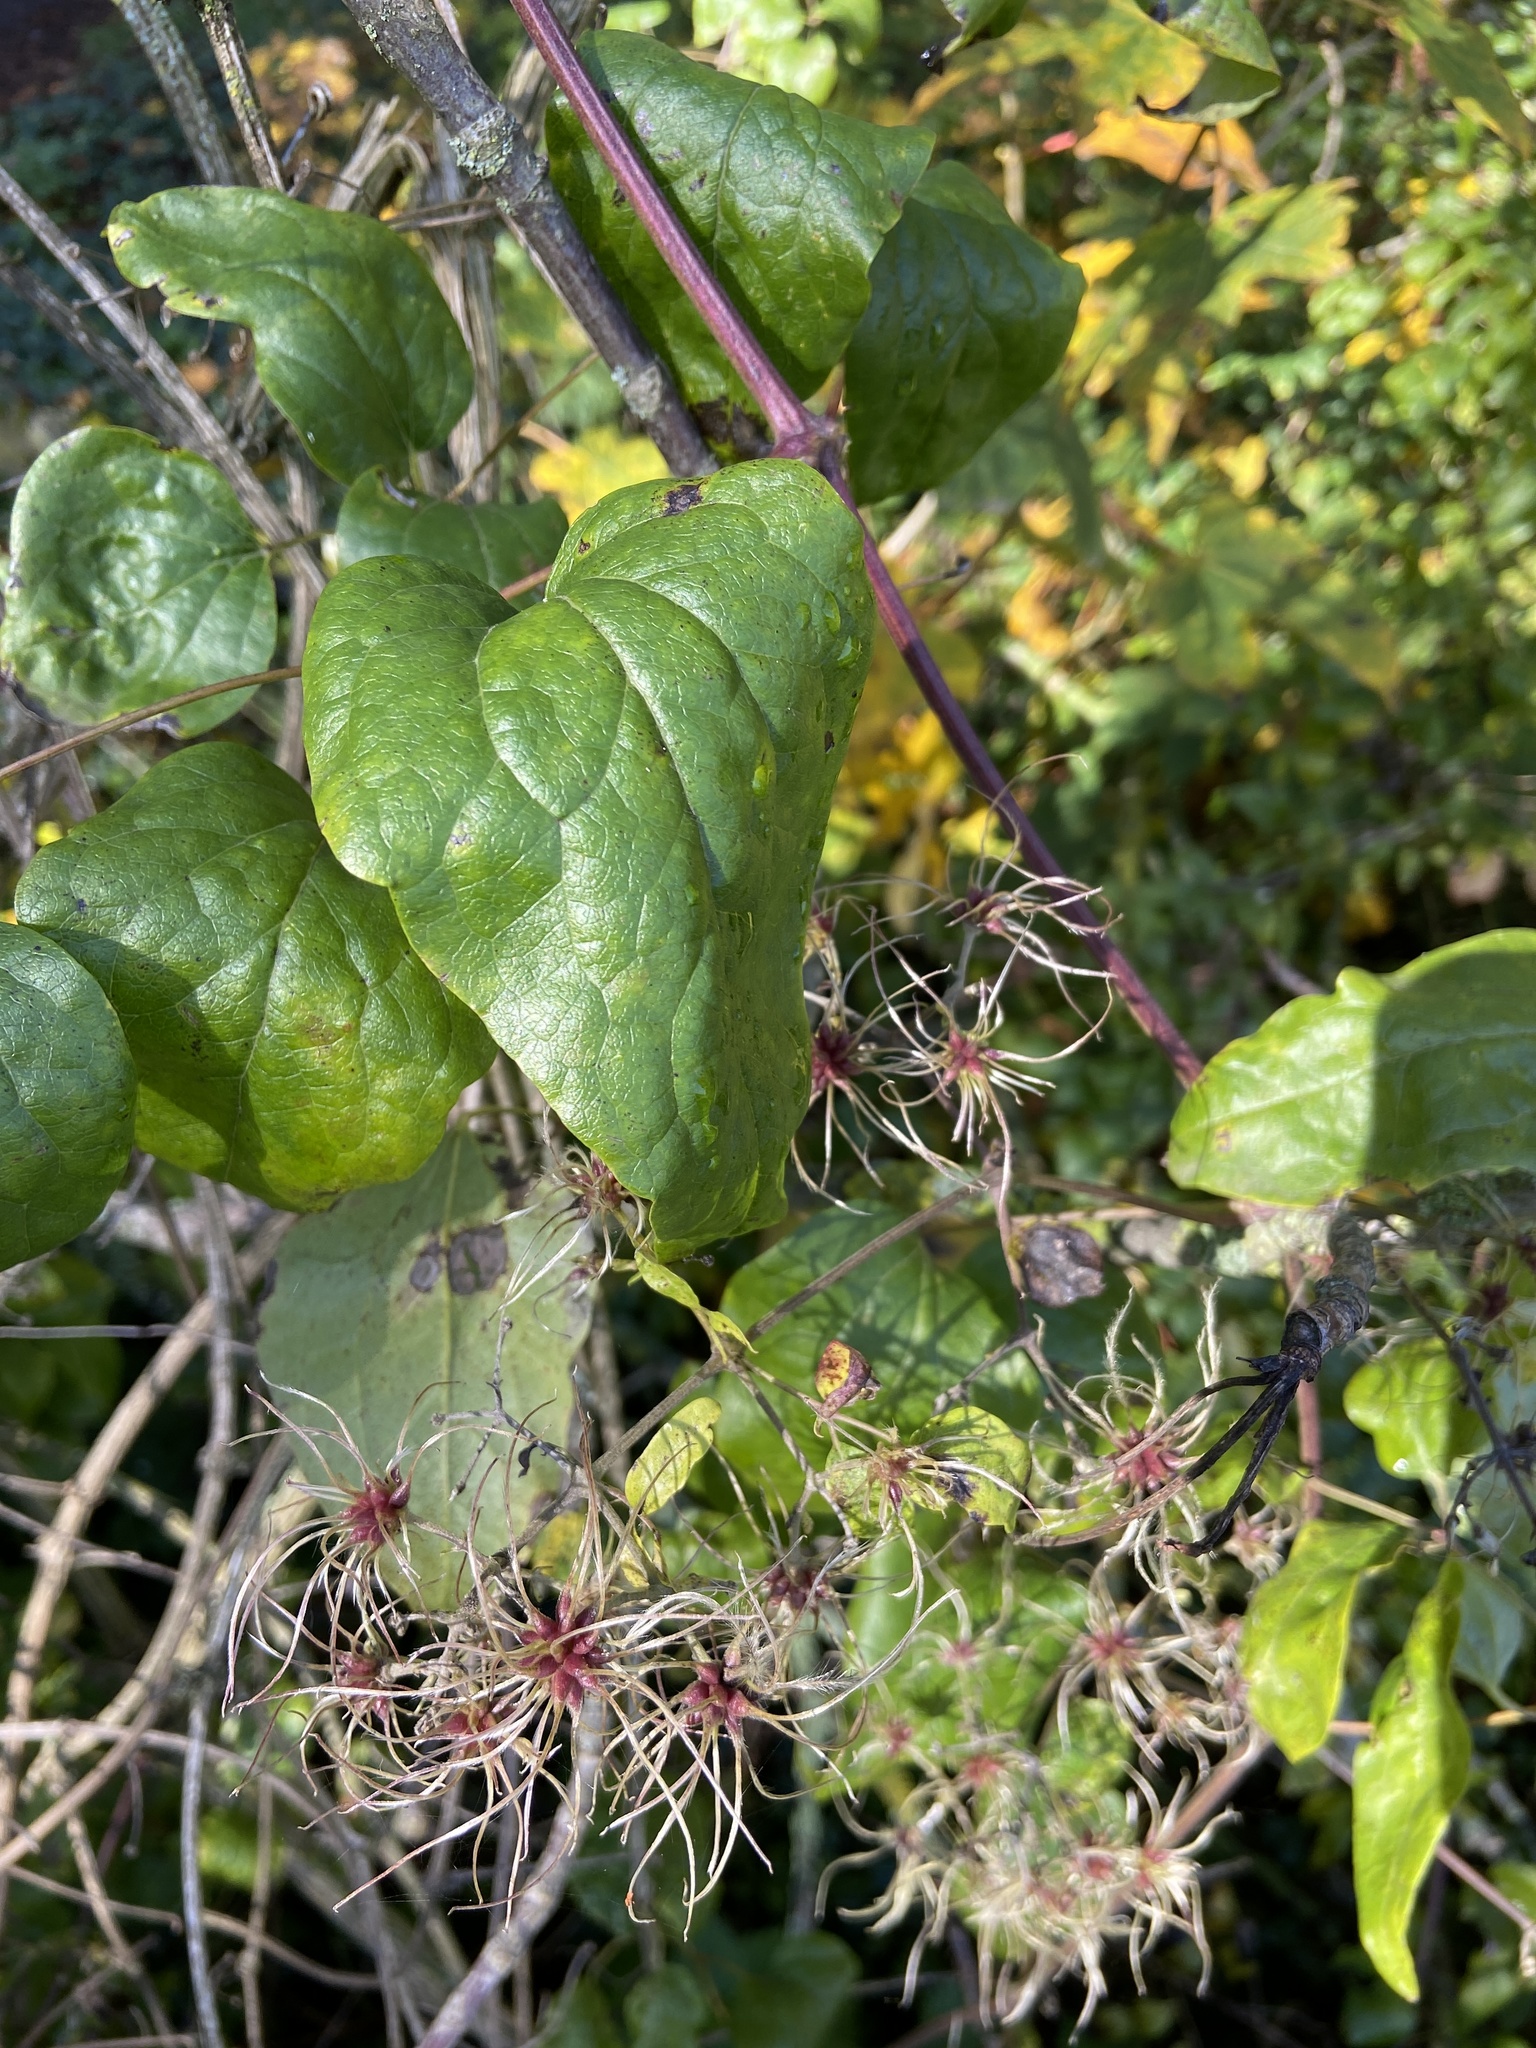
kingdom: Plantae
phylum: Tracheophyta
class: Magnoliopsida
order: Ranunculales
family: Ranunculaceae
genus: Clematis
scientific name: Clematis vitalba
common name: Evergreen clematis
